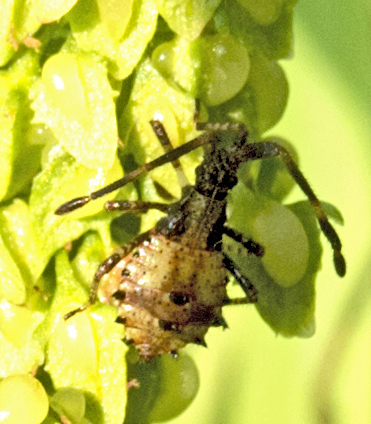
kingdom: Animalia
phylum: Arthropoda
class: Insecta
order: Hemiptera
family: Coreidae
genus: Coreus
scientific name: Coreus marginatus
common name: Dock bug
